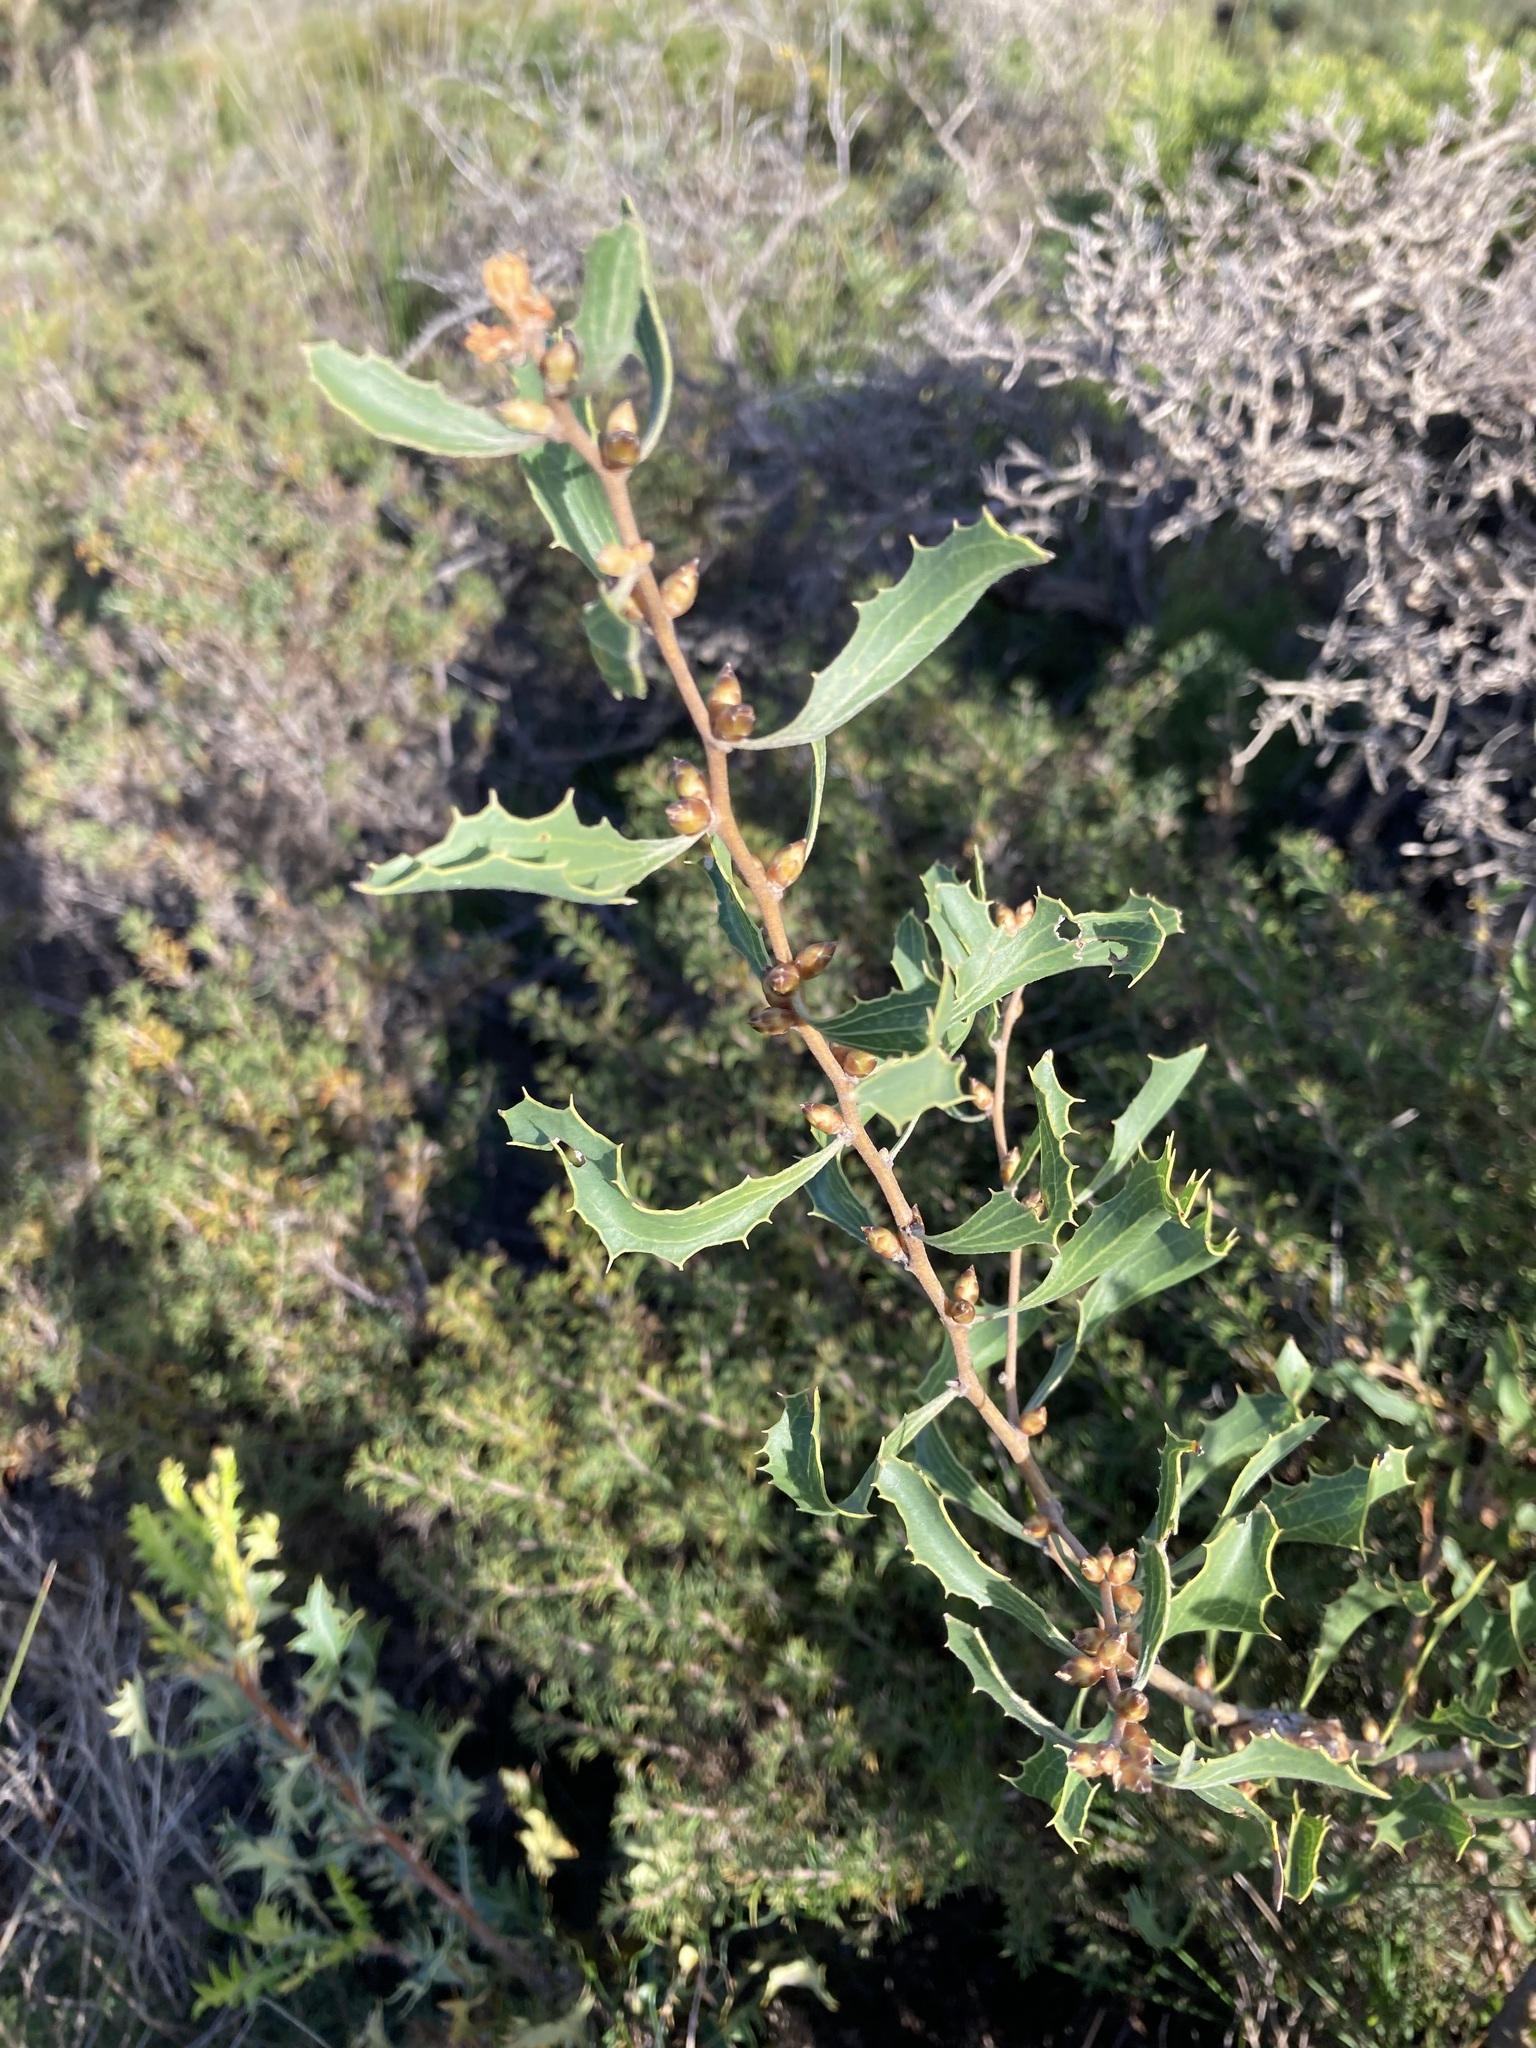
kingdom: Plantae
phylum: Tracheophyta
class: Magnoliopsida
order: Proteales
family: Proteaceae
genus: Hakea
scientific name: Hakea anadenia
